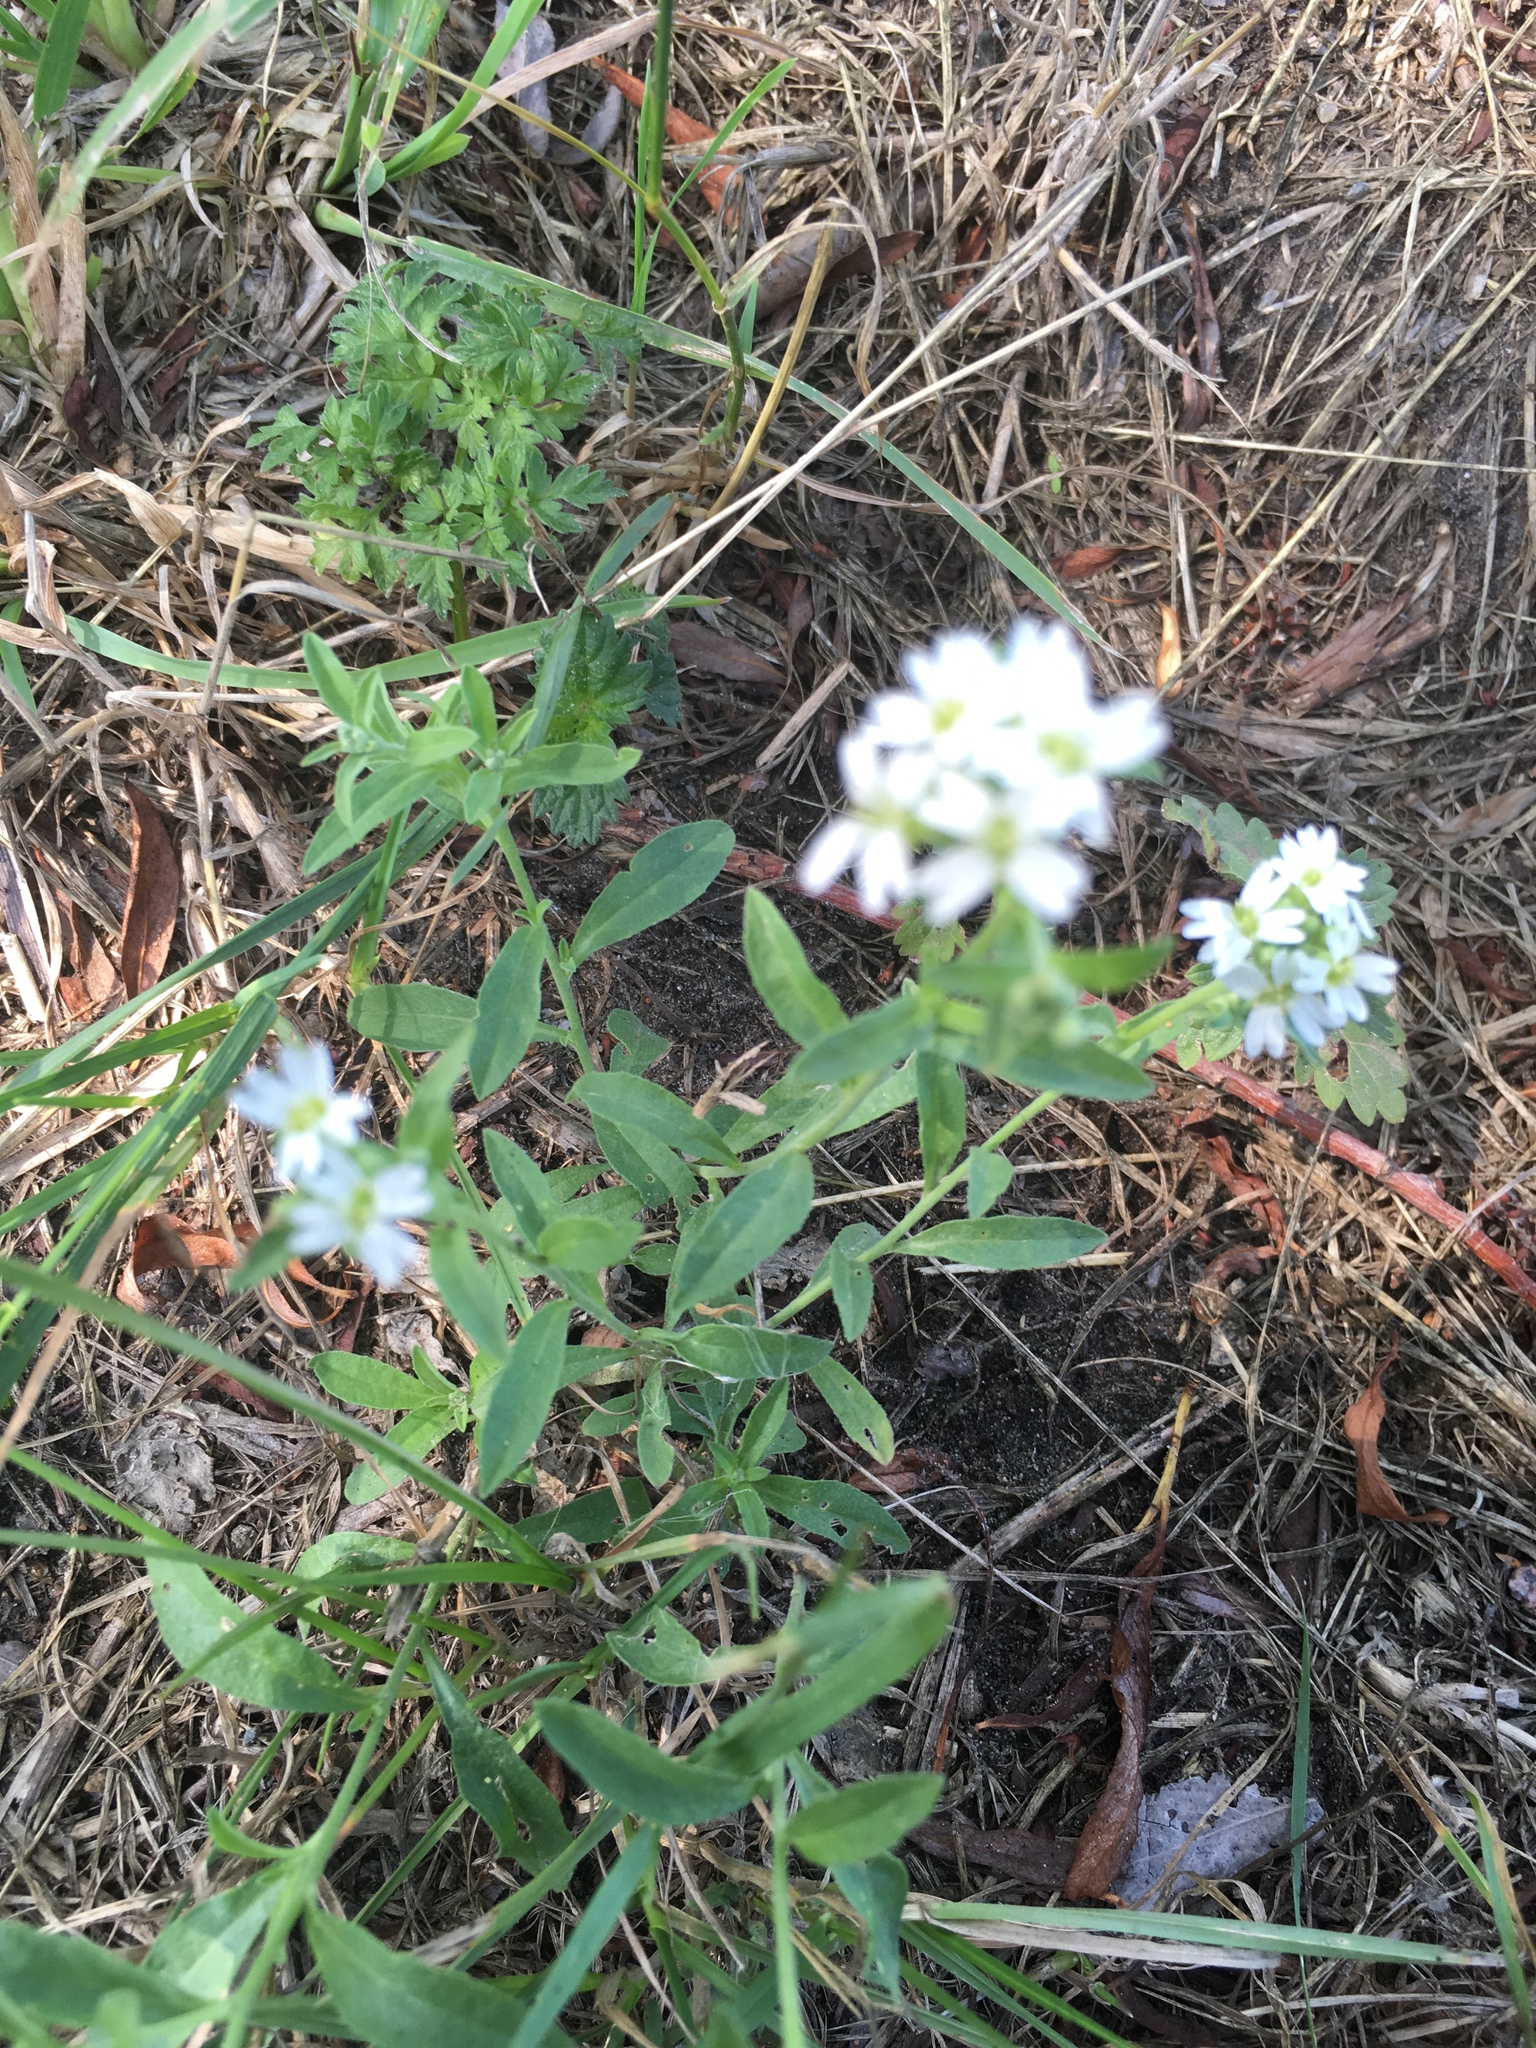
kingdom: Plantae
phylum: Tracheophyta
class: Magnoliopsida
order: Brassicales
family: Brassicaceae
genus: Berteroa
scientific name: Berteroa incana
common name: Hoary alison
